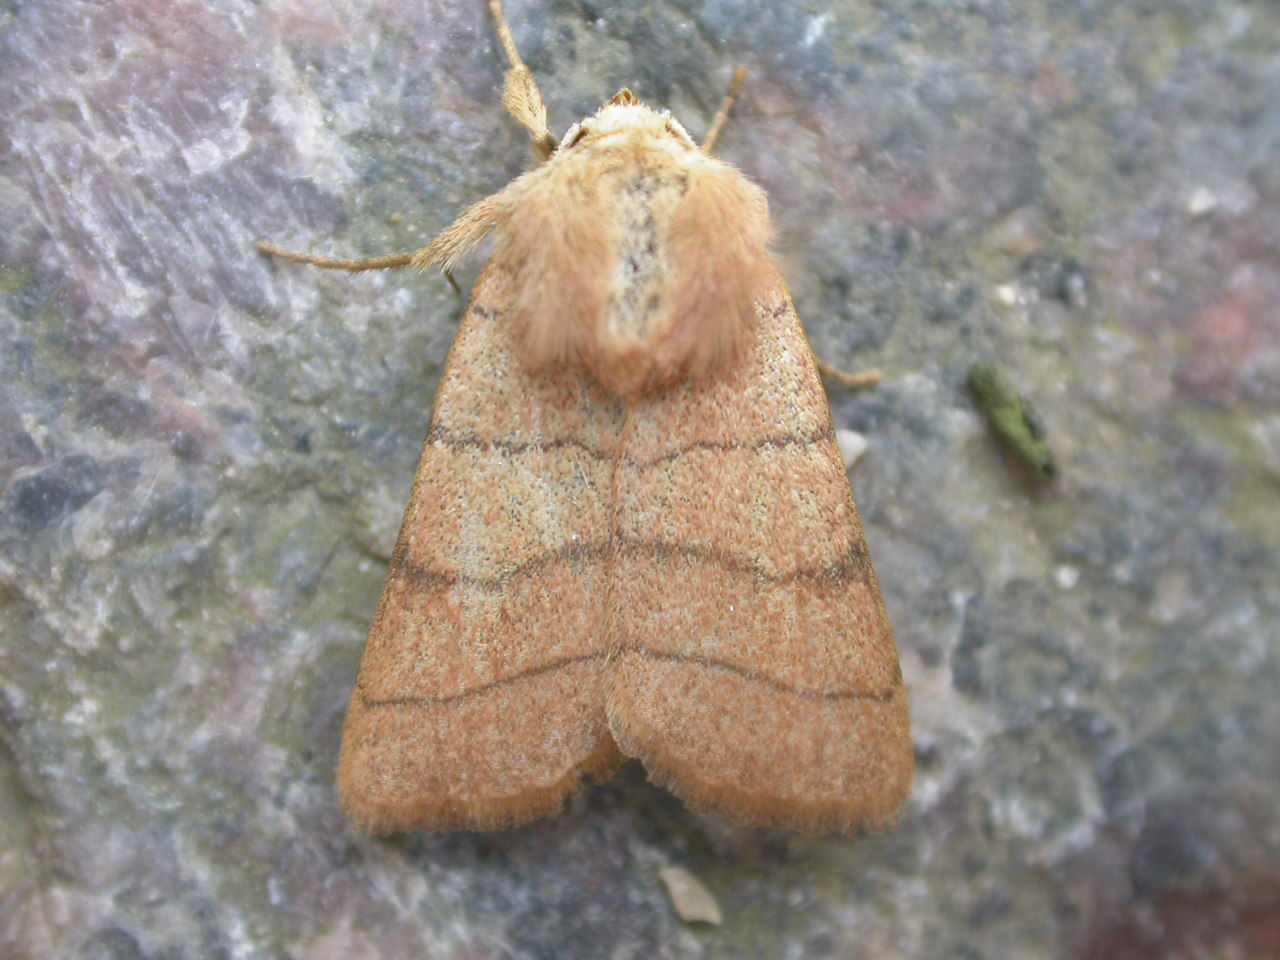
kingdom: Animalia
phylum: Arthropoda
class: Insecta
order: Lepidoptera
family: Noctuidae
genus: Charanyca
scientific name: Charanyca trigrammica
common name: Treble lines
